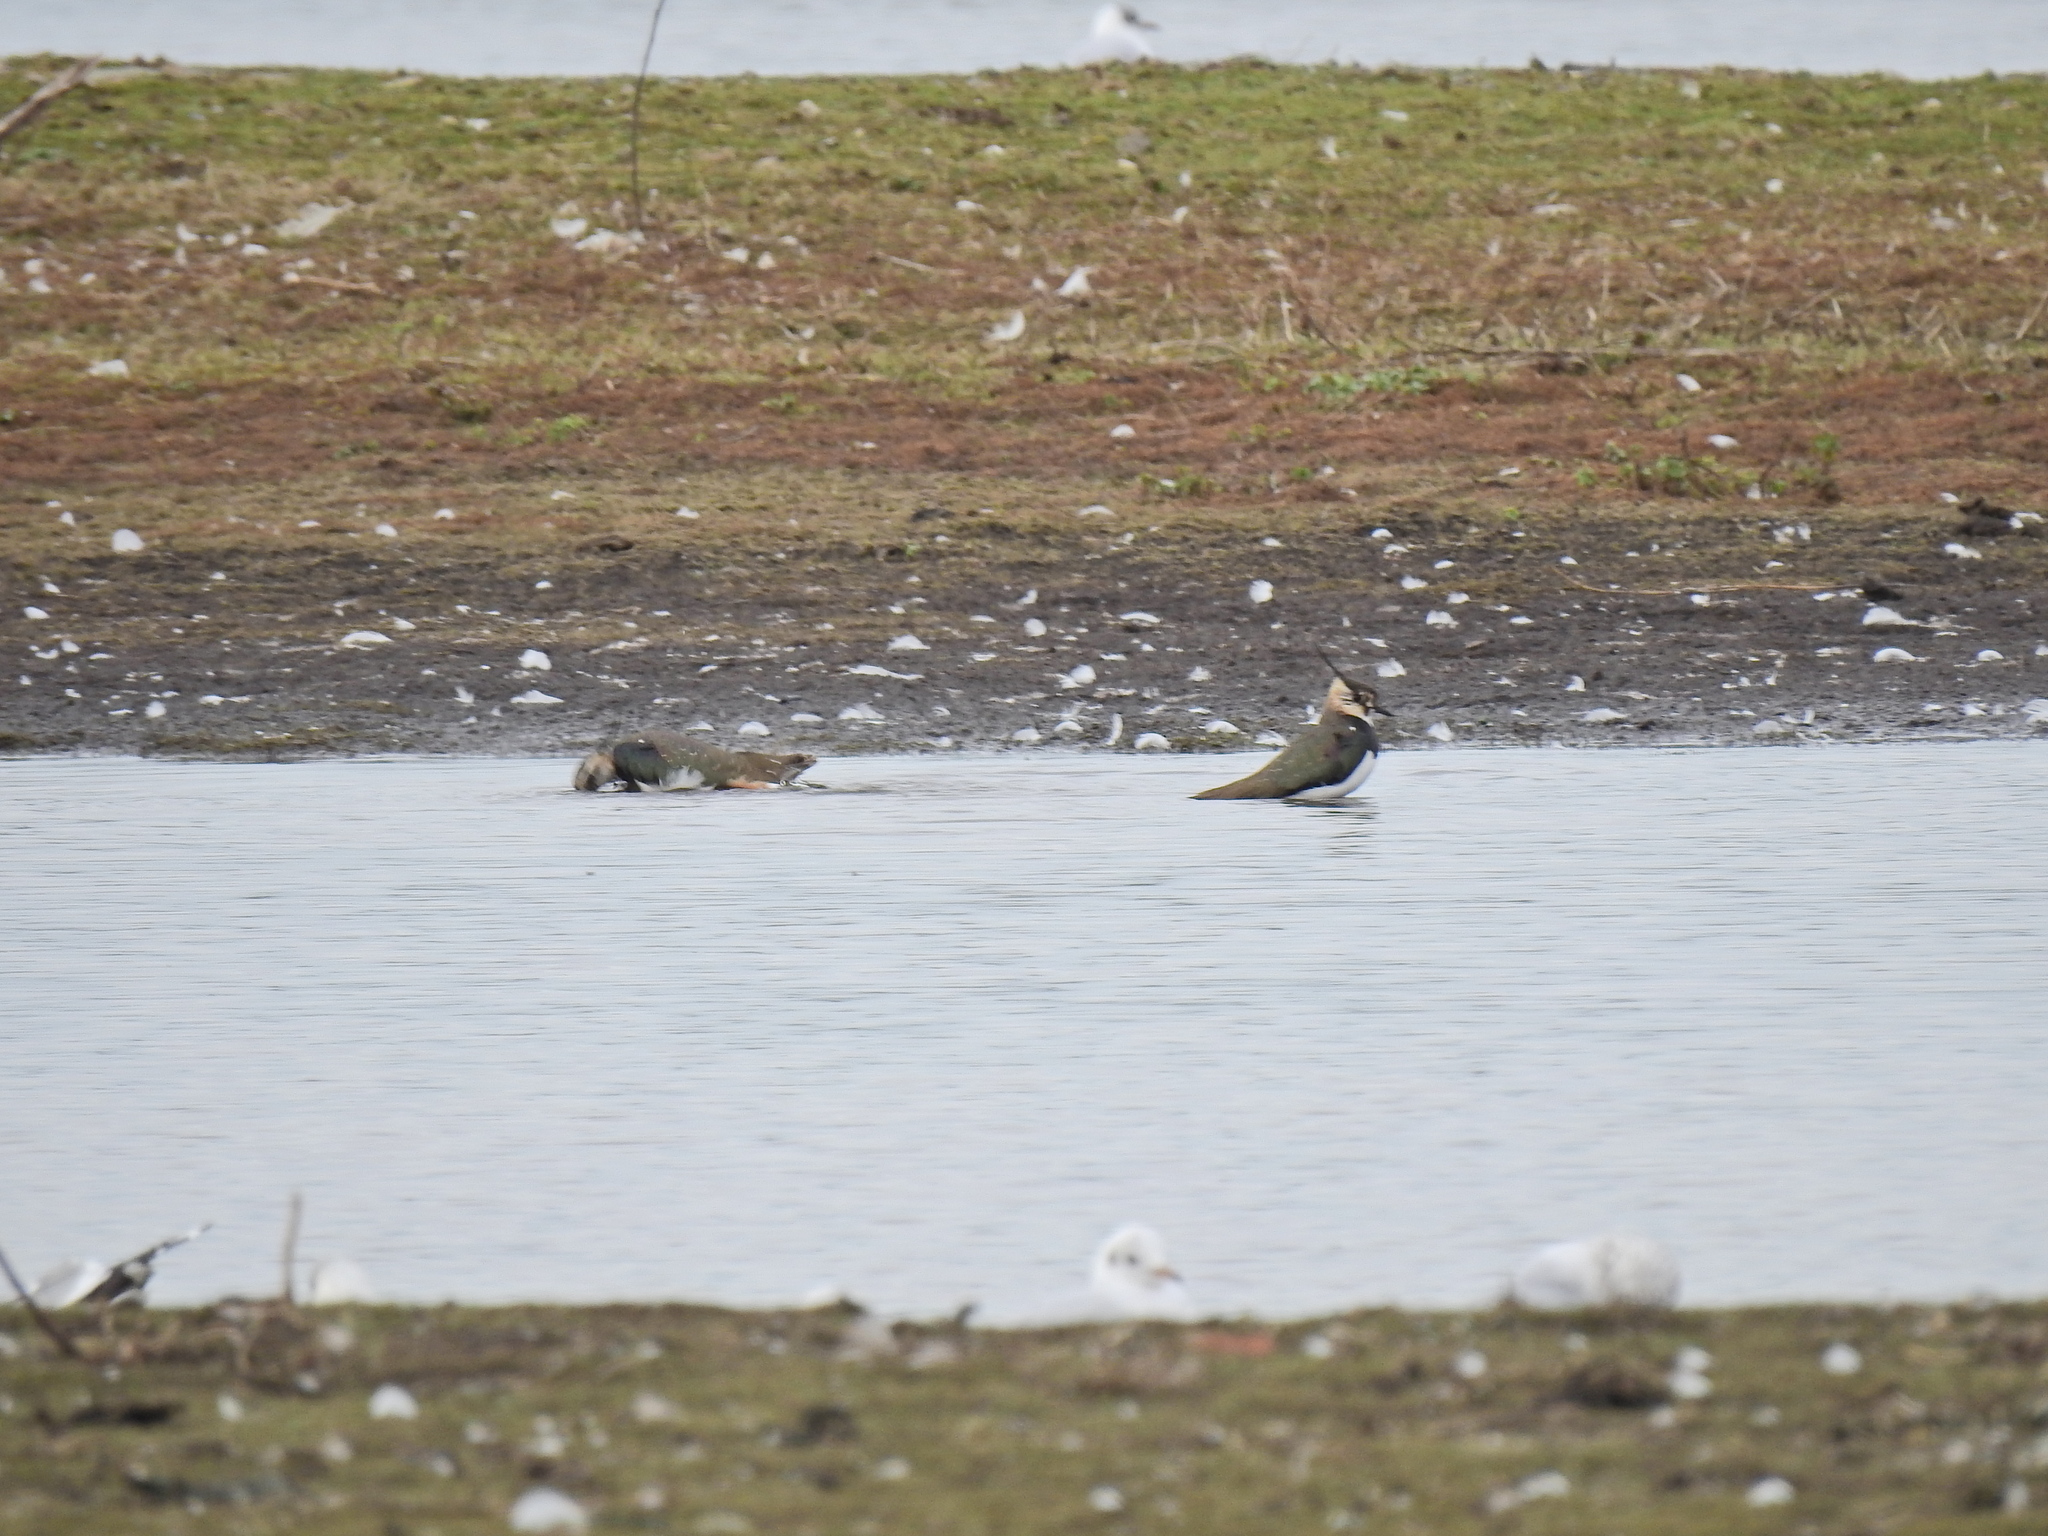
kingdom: Animalia
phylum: Chordata
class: Aves
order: Charadriiformes
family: Charadriidae
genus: Vanellus
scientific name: Vanellus vanellus
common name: Northern lapwing
